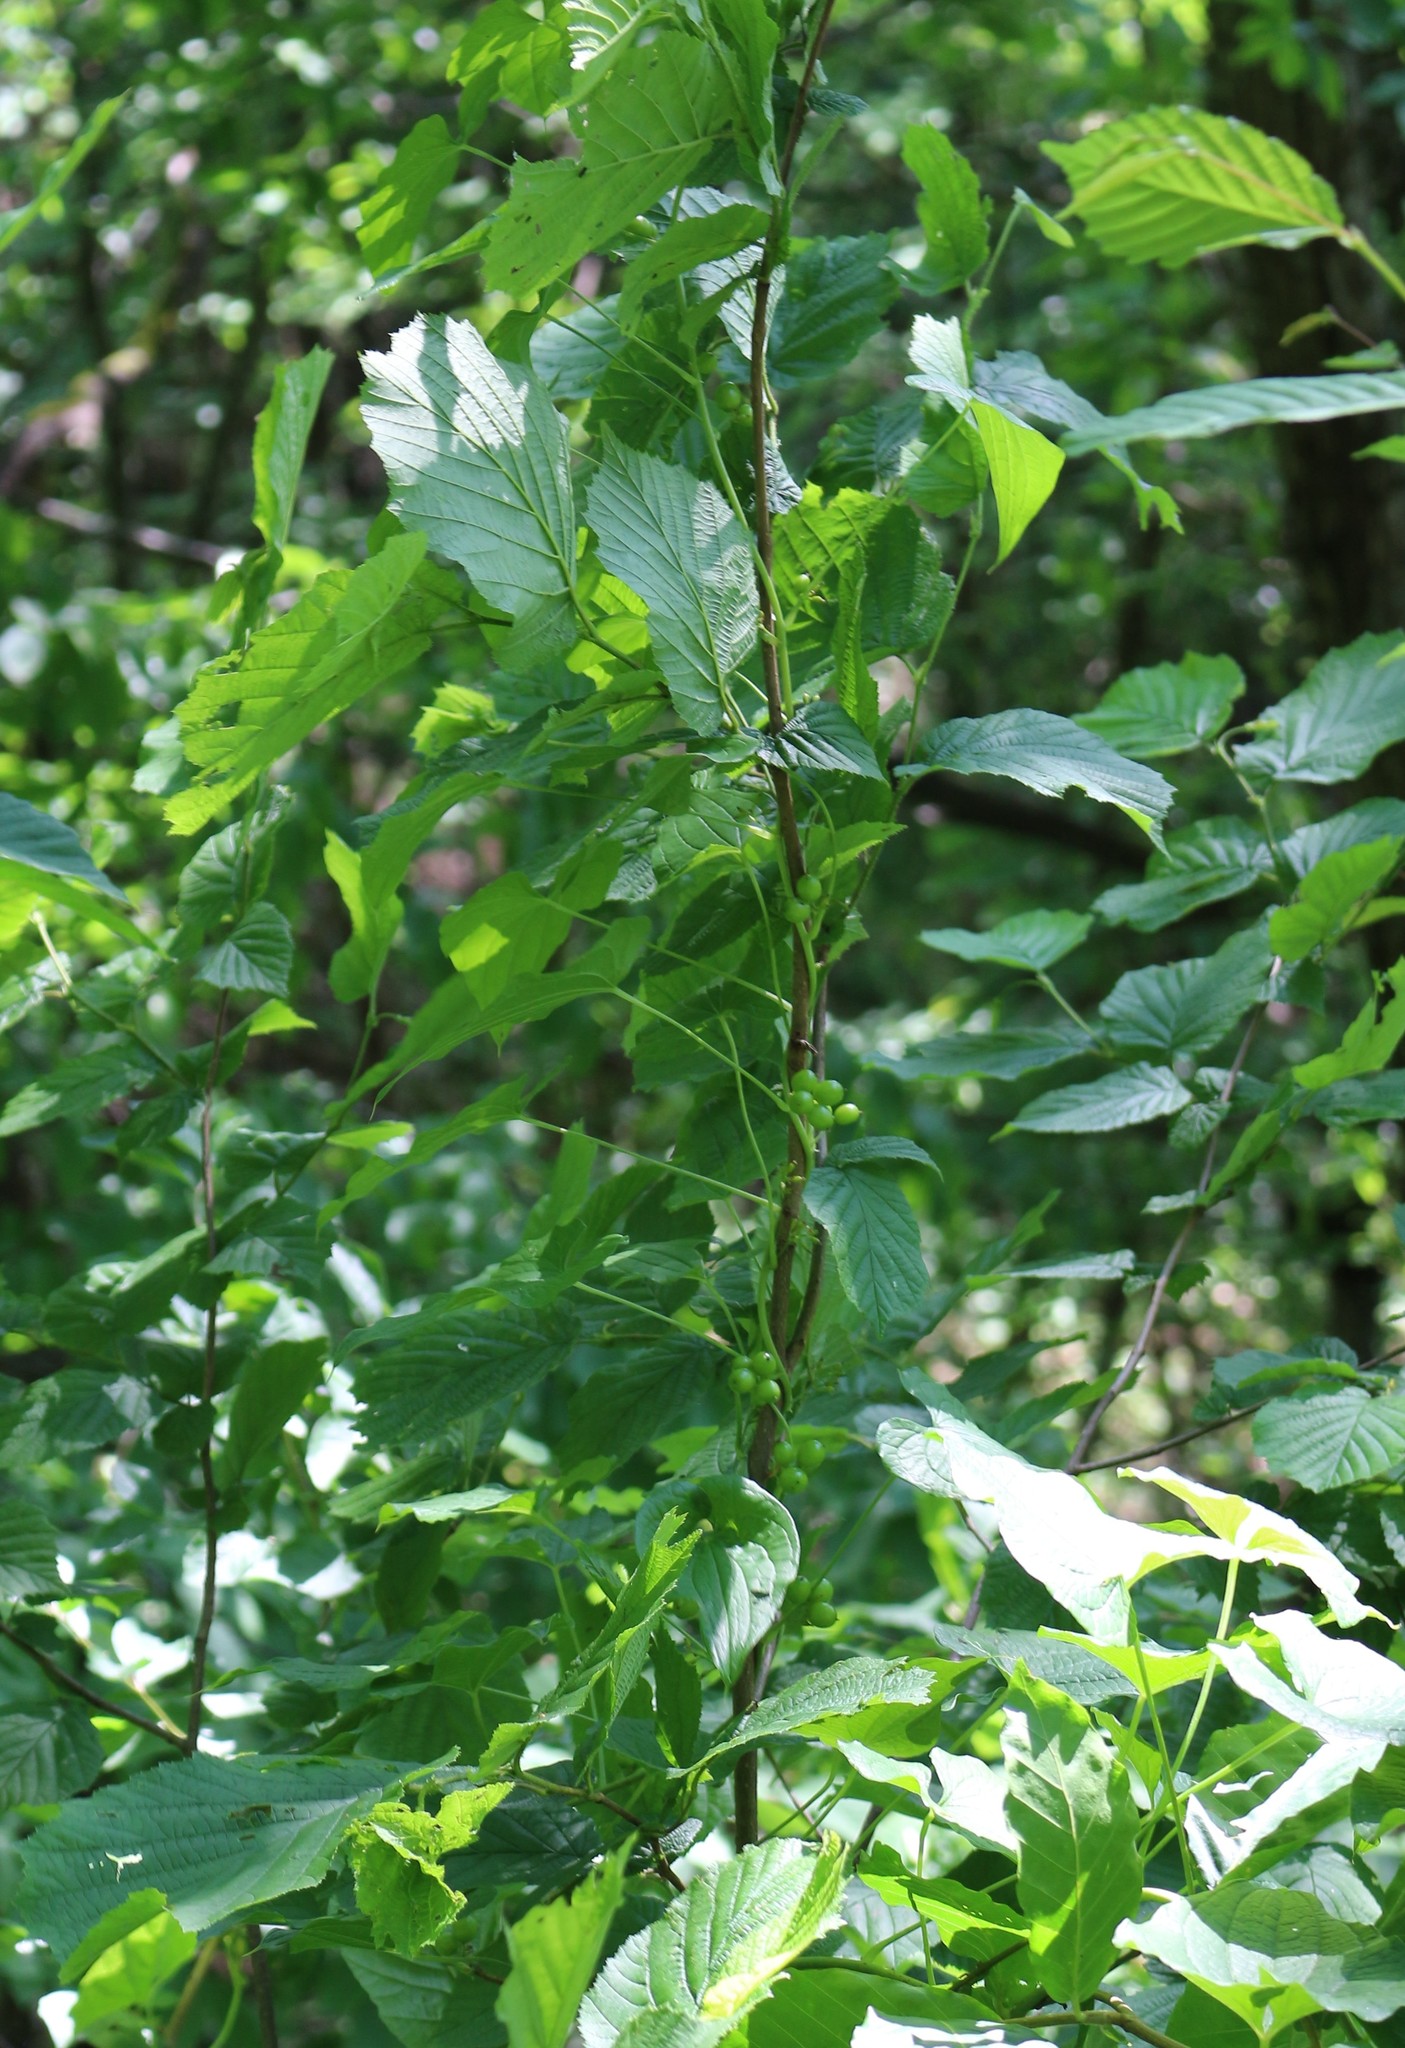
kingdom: Plantae
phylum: Tracheophyta
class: Liliopsida
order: Dioscoreales
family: Dioscoreaceae
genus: Dioscorea
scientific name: Dioscorea communis
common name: Black-bindweed
